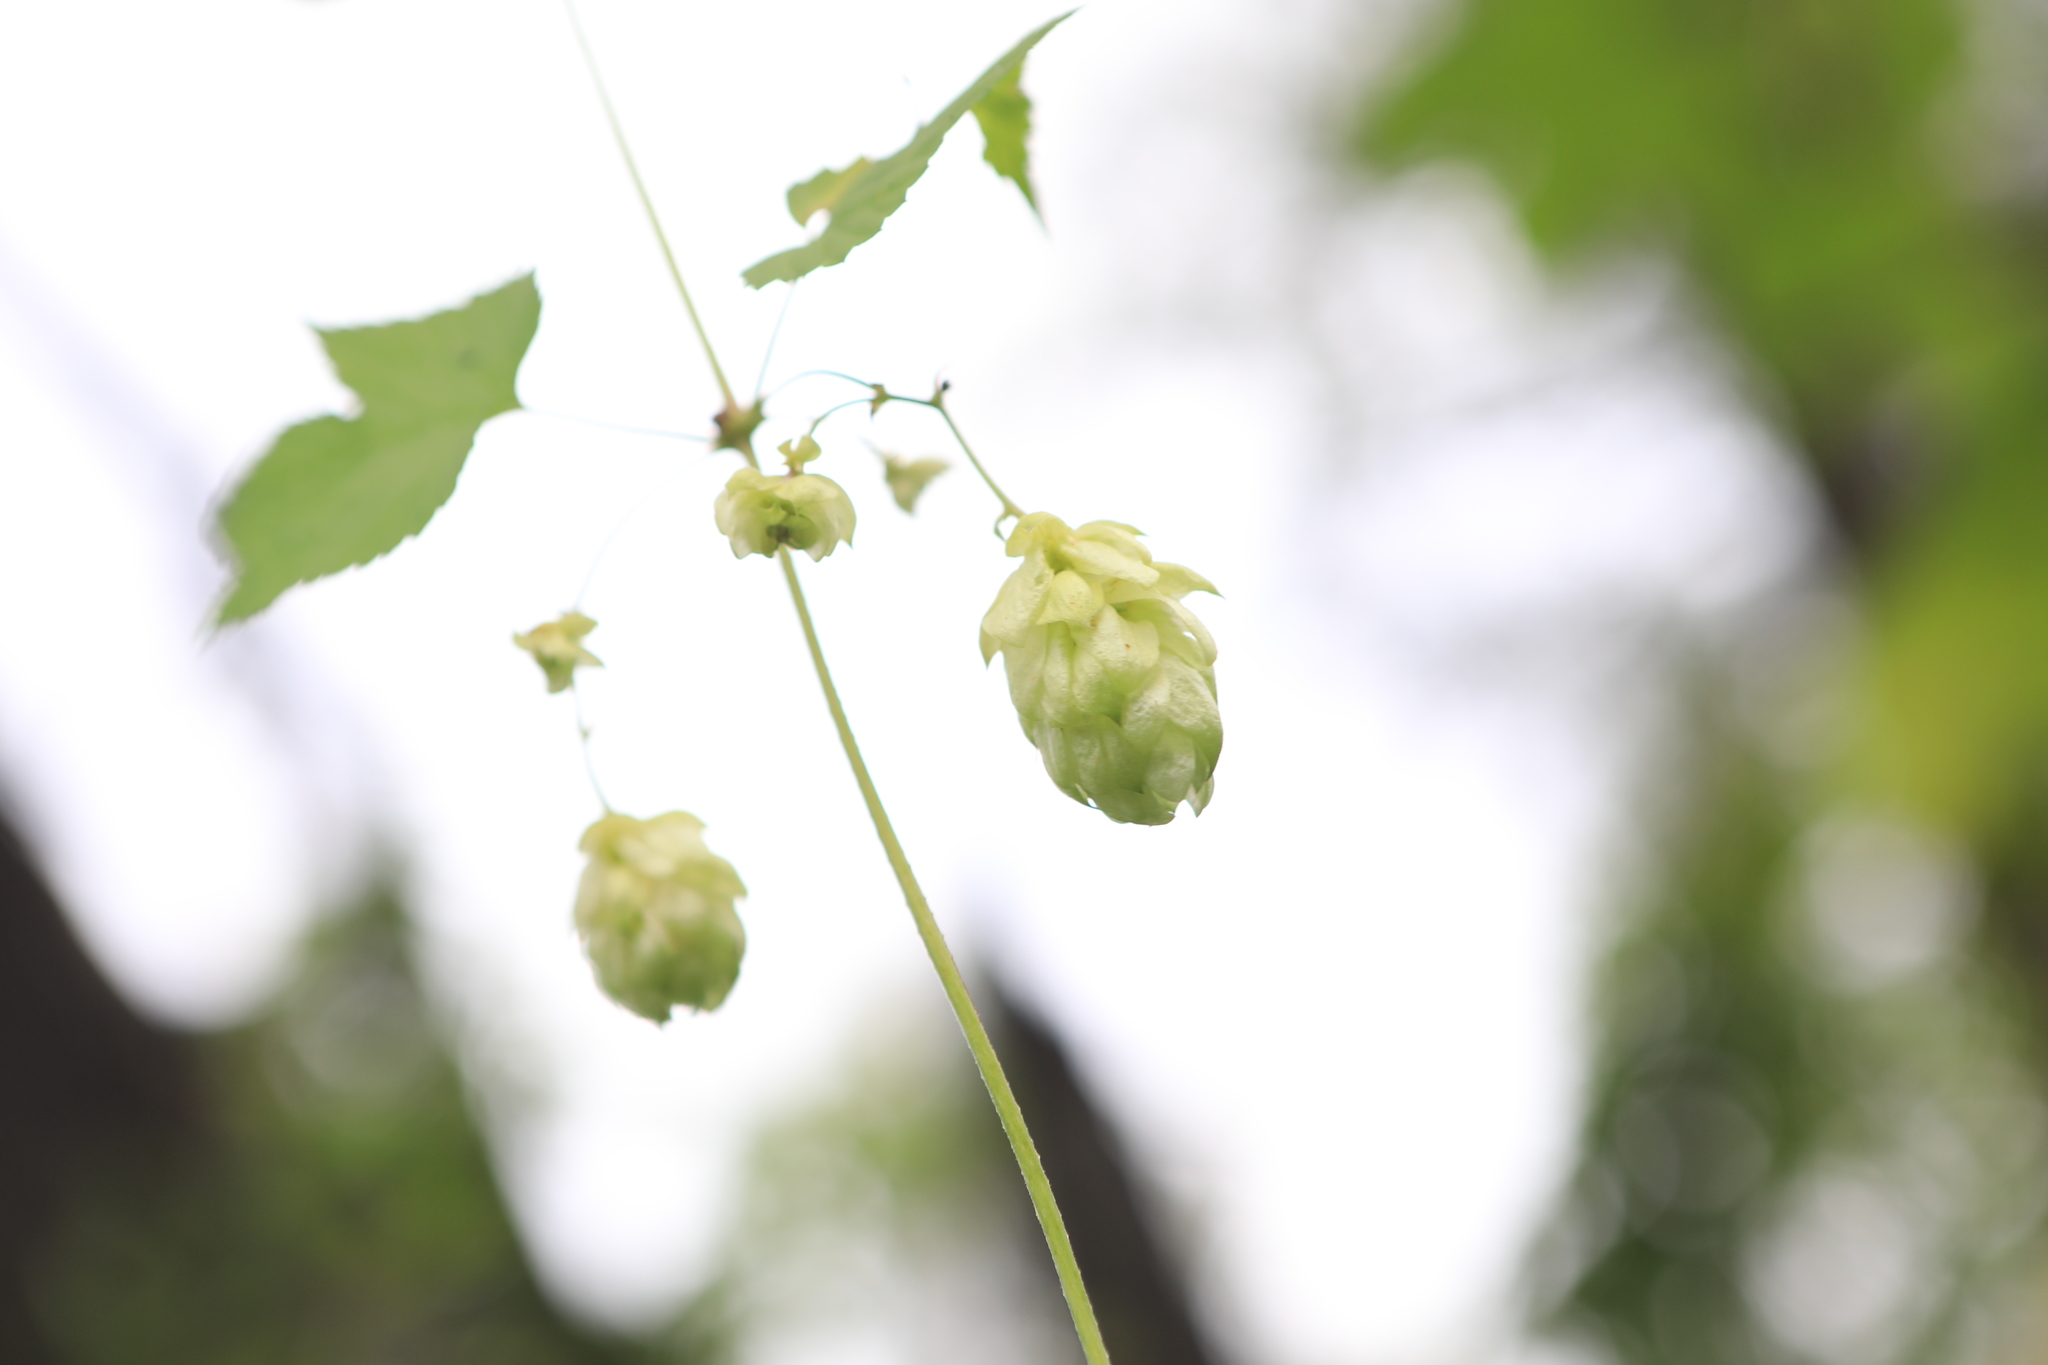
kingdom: Plantae
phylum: Tracheophyta
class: Magnoliopsida
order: Rosales
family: Cannabaceae
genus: Humulus
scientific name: Humulus lupulus
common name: Hop
